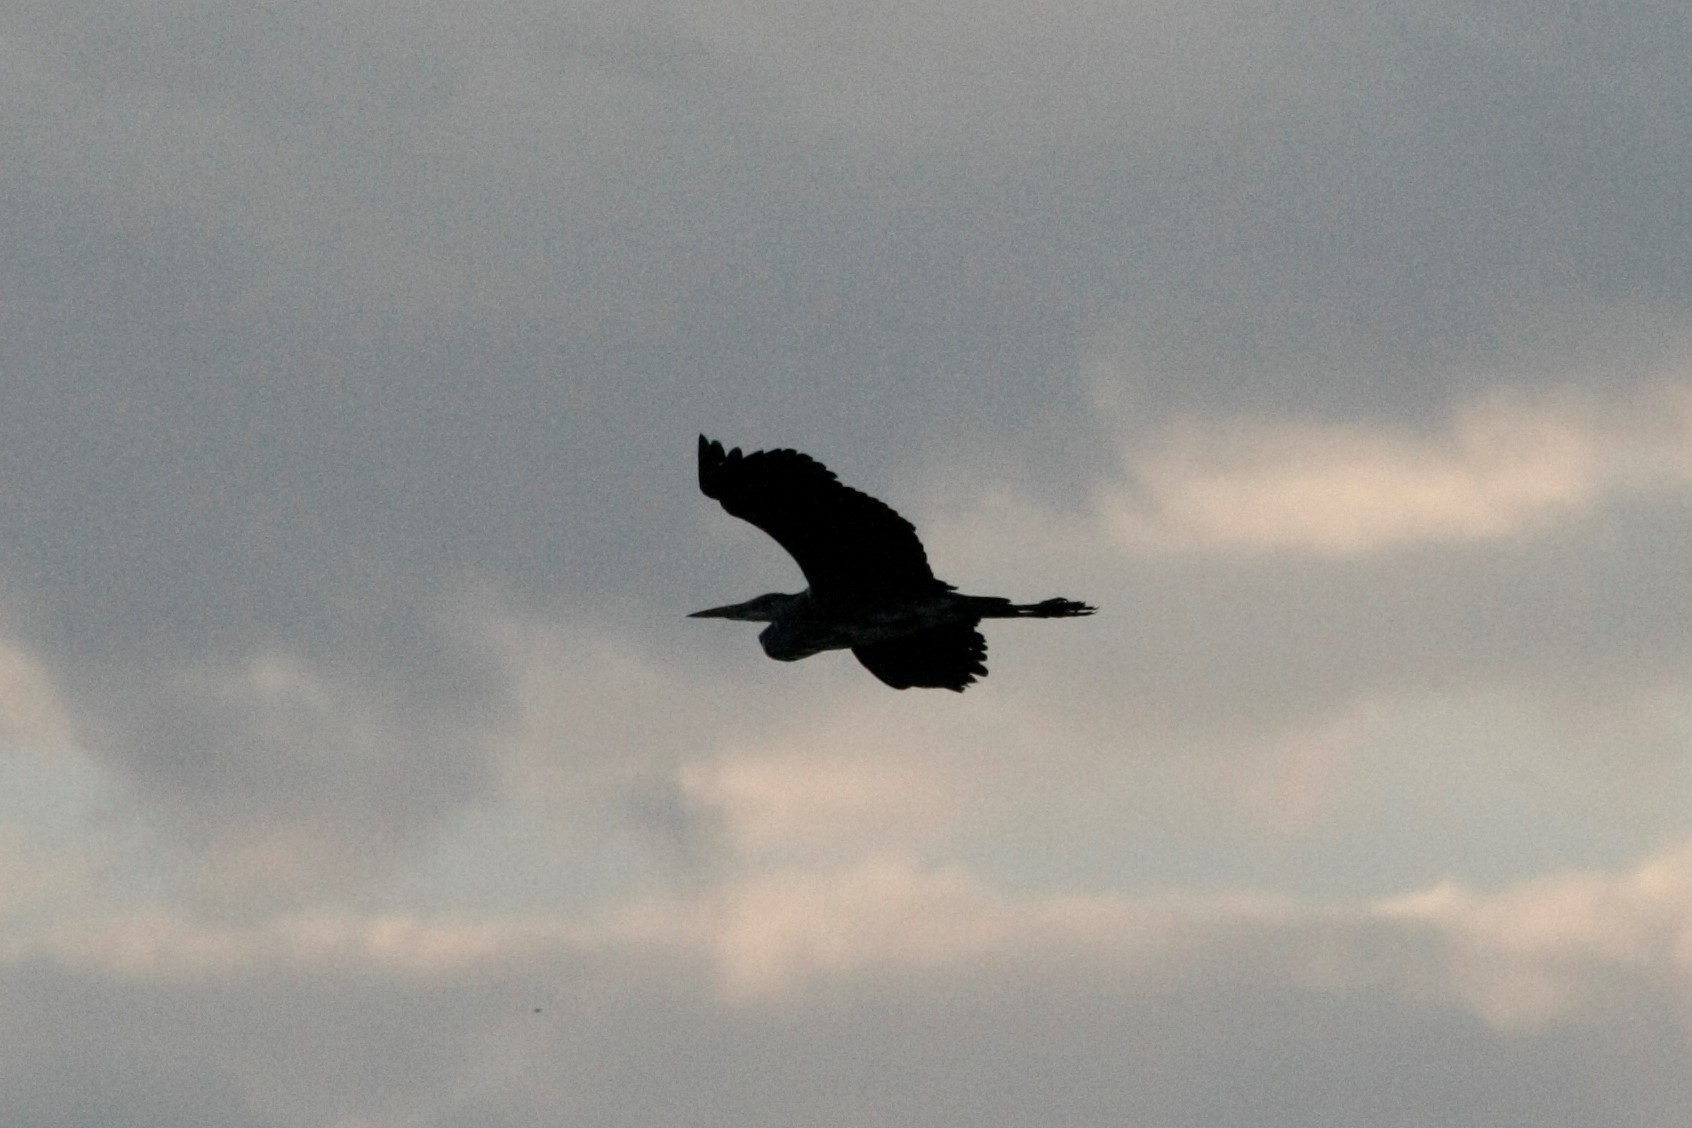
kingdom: Animalia
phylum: Chordata
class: Aves
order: Pelecaniformes
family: Ardeidae
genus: Ardea
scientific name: Ardea cinerea
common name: Grey heron
